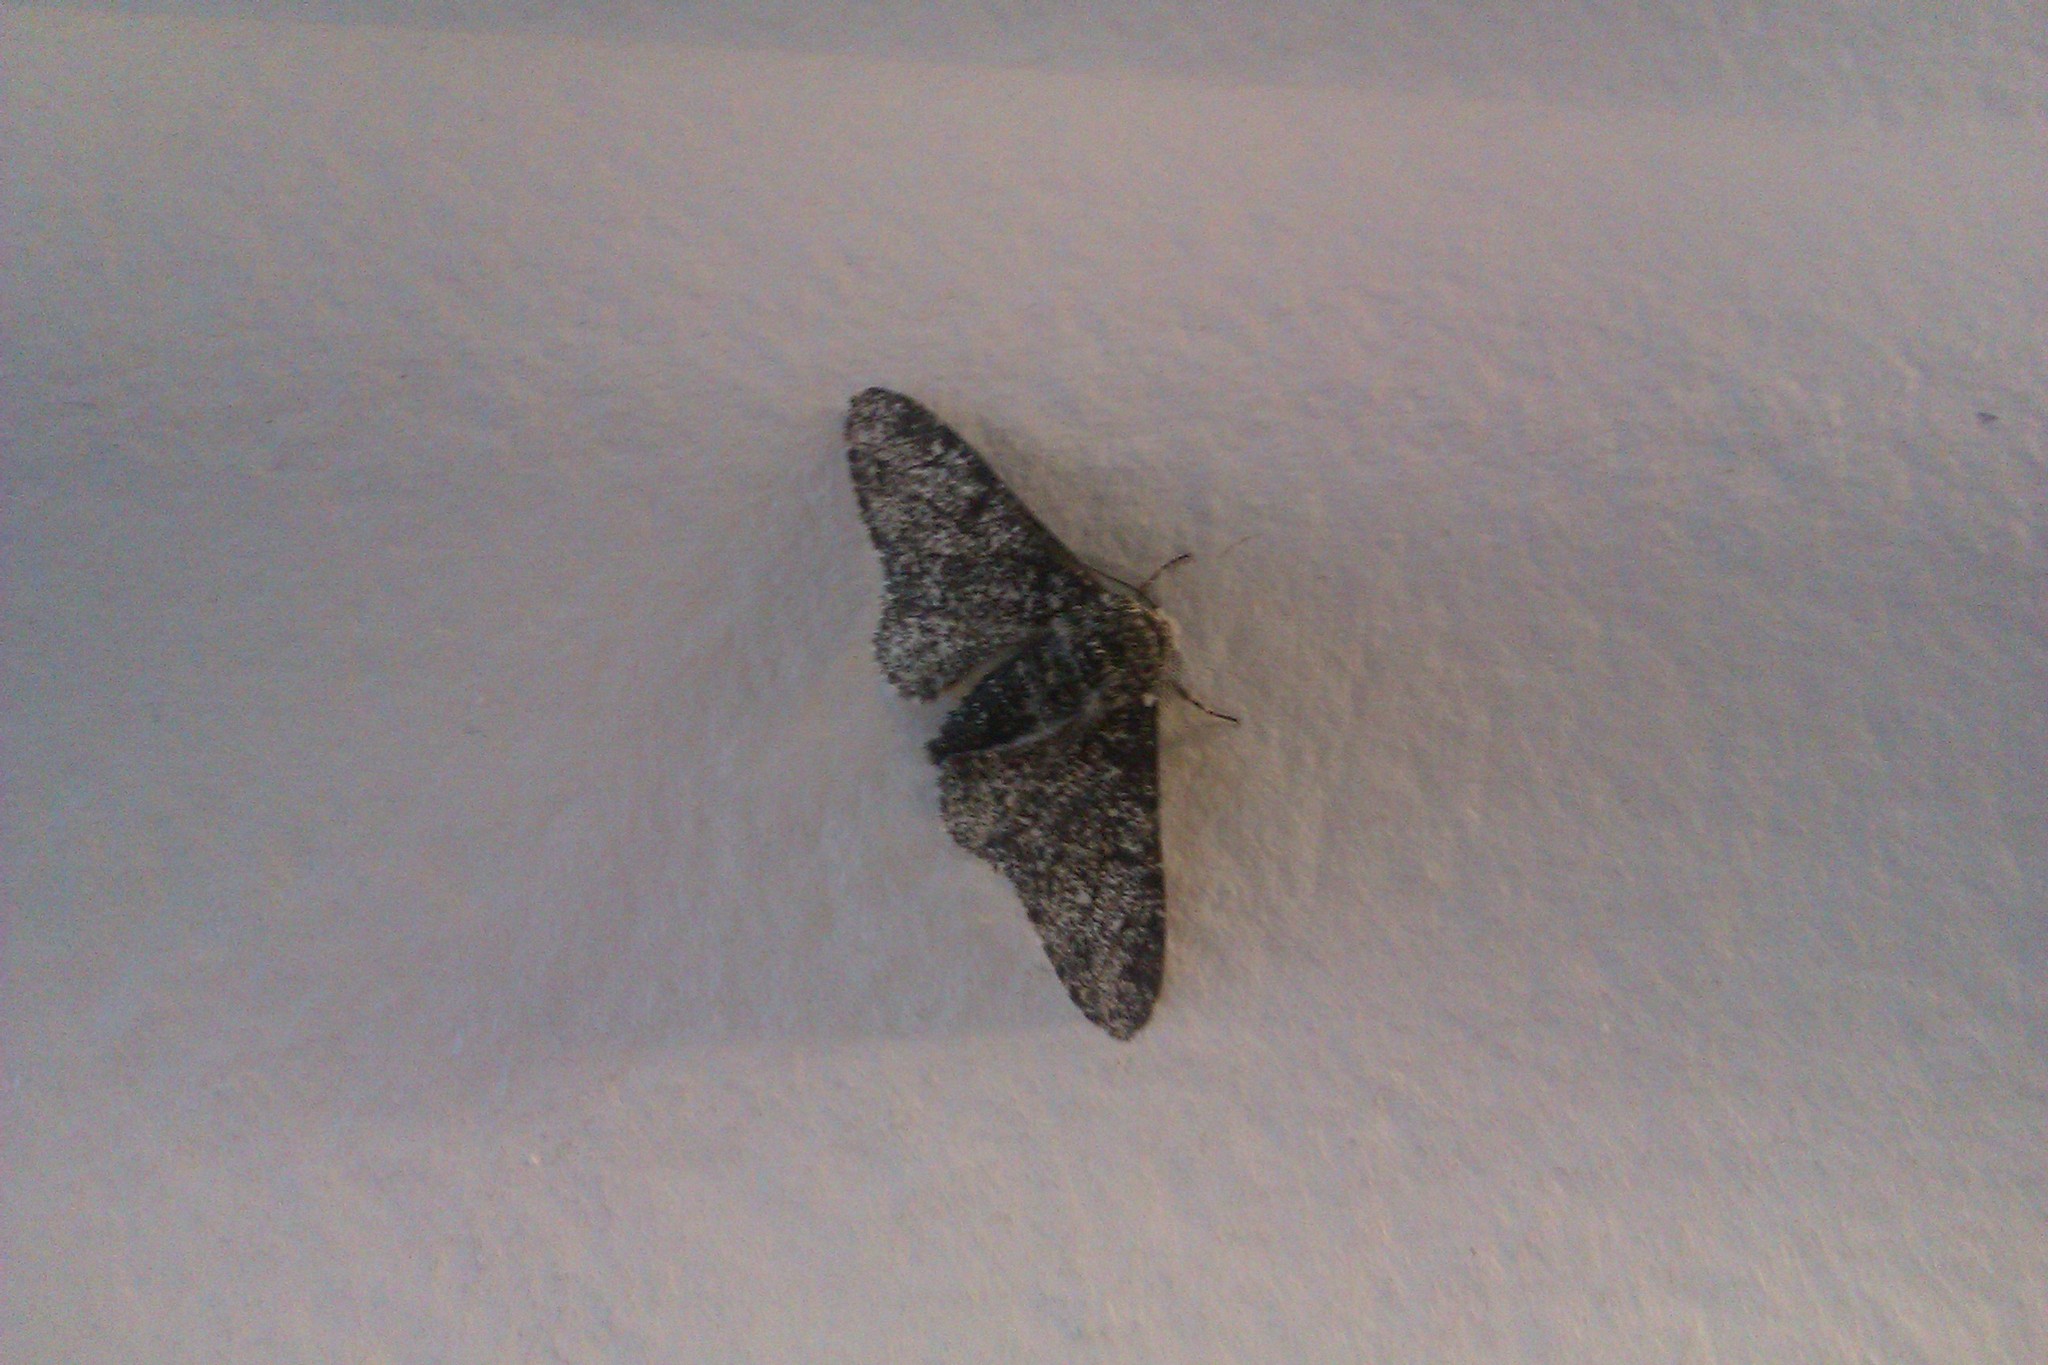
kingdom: Animalia
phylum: Arthropoda
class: Insecta
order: Lepidoptera
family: Geometridae
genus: Biston
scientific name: Biston betularia
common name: Peppered moth
